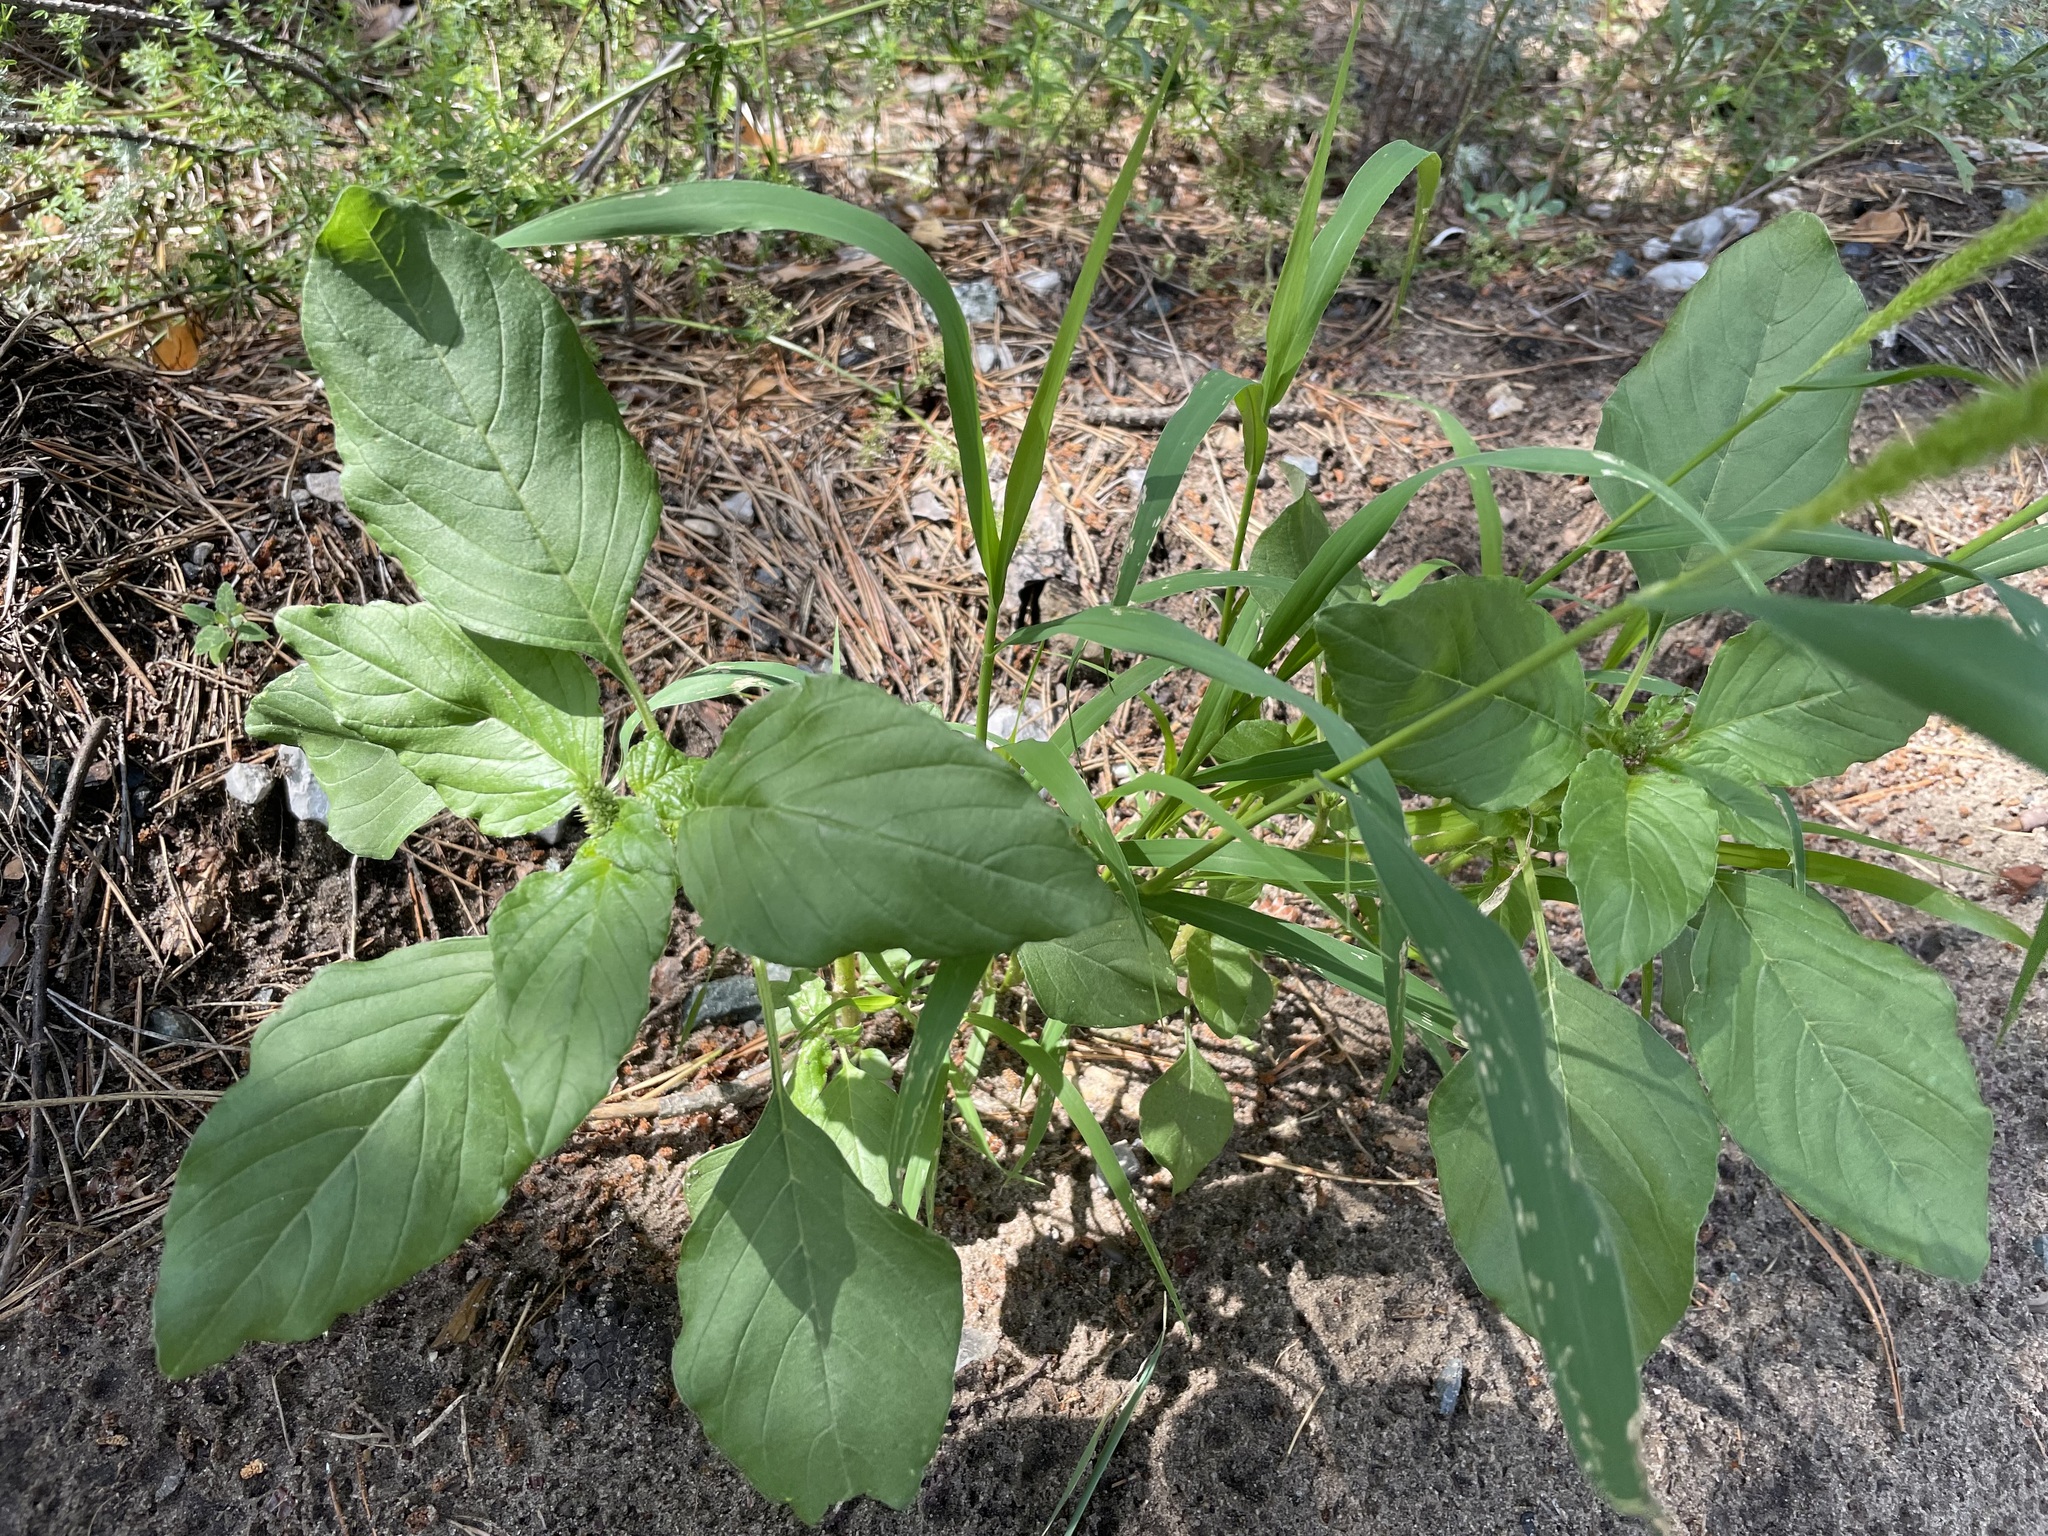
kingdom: Plantae
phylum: Tracheophyta
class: Magnoliopsida
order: Caryophyllales
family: Amaranthaceae
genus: Amaranthus
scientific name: Amaranthus retroflexus
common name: Redroot amaranth
